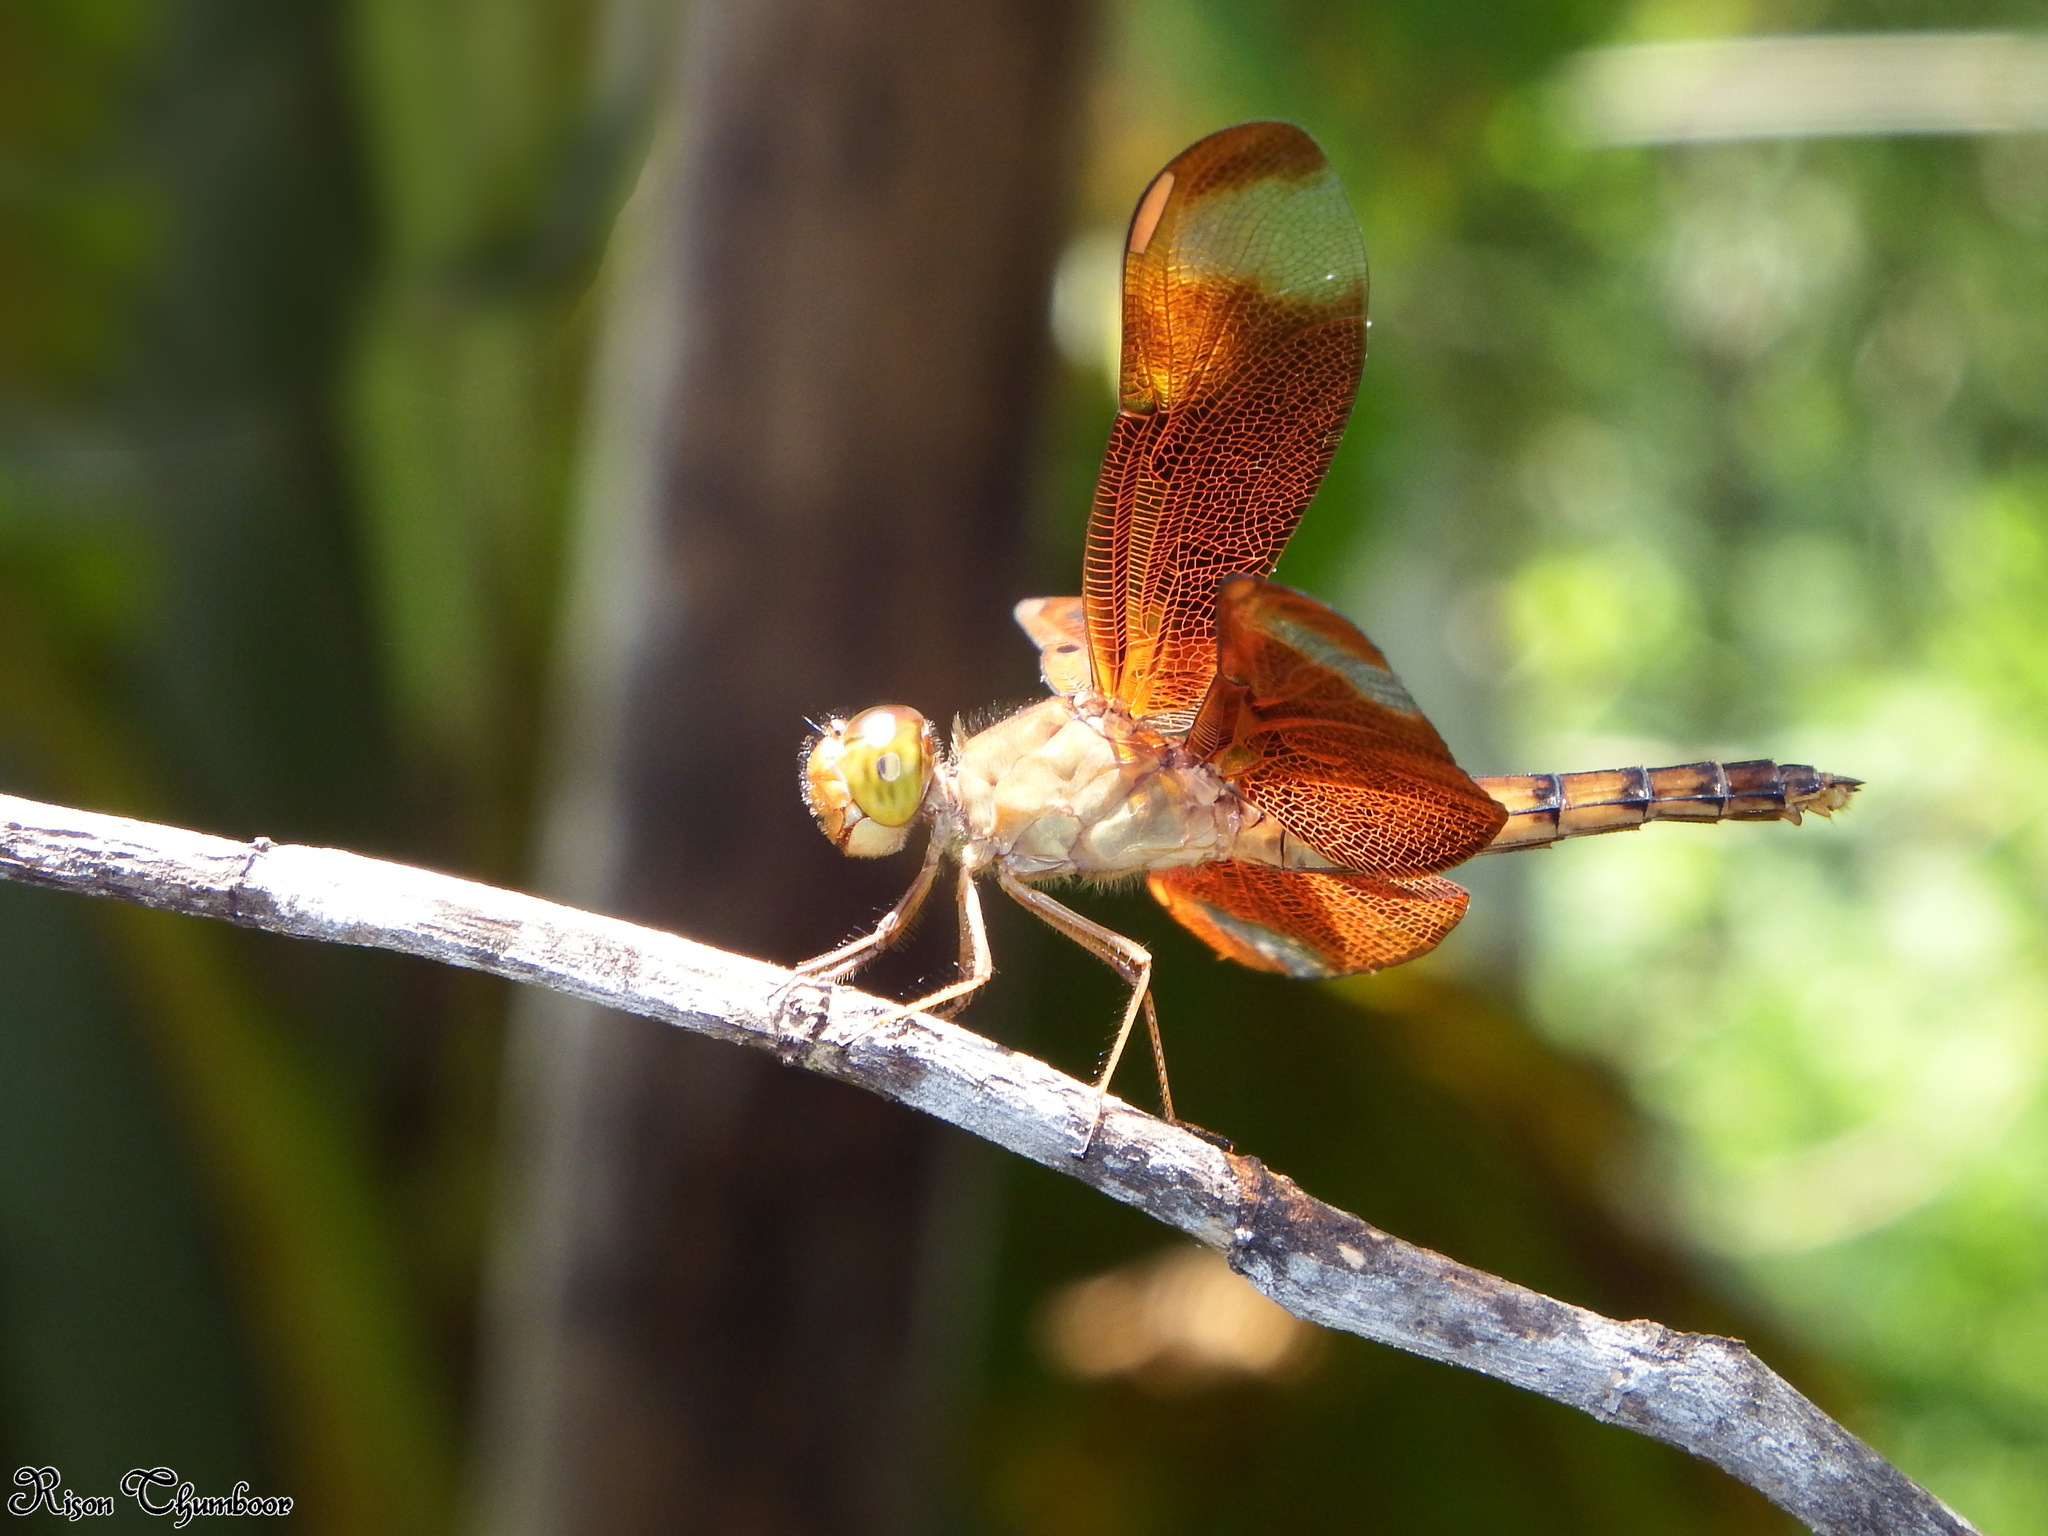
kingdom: Animalia
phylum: Arthropoda
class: Insecta
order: Odonata
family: Libellulidae
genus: Neurothemis
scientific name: Neurothemis fulvia
